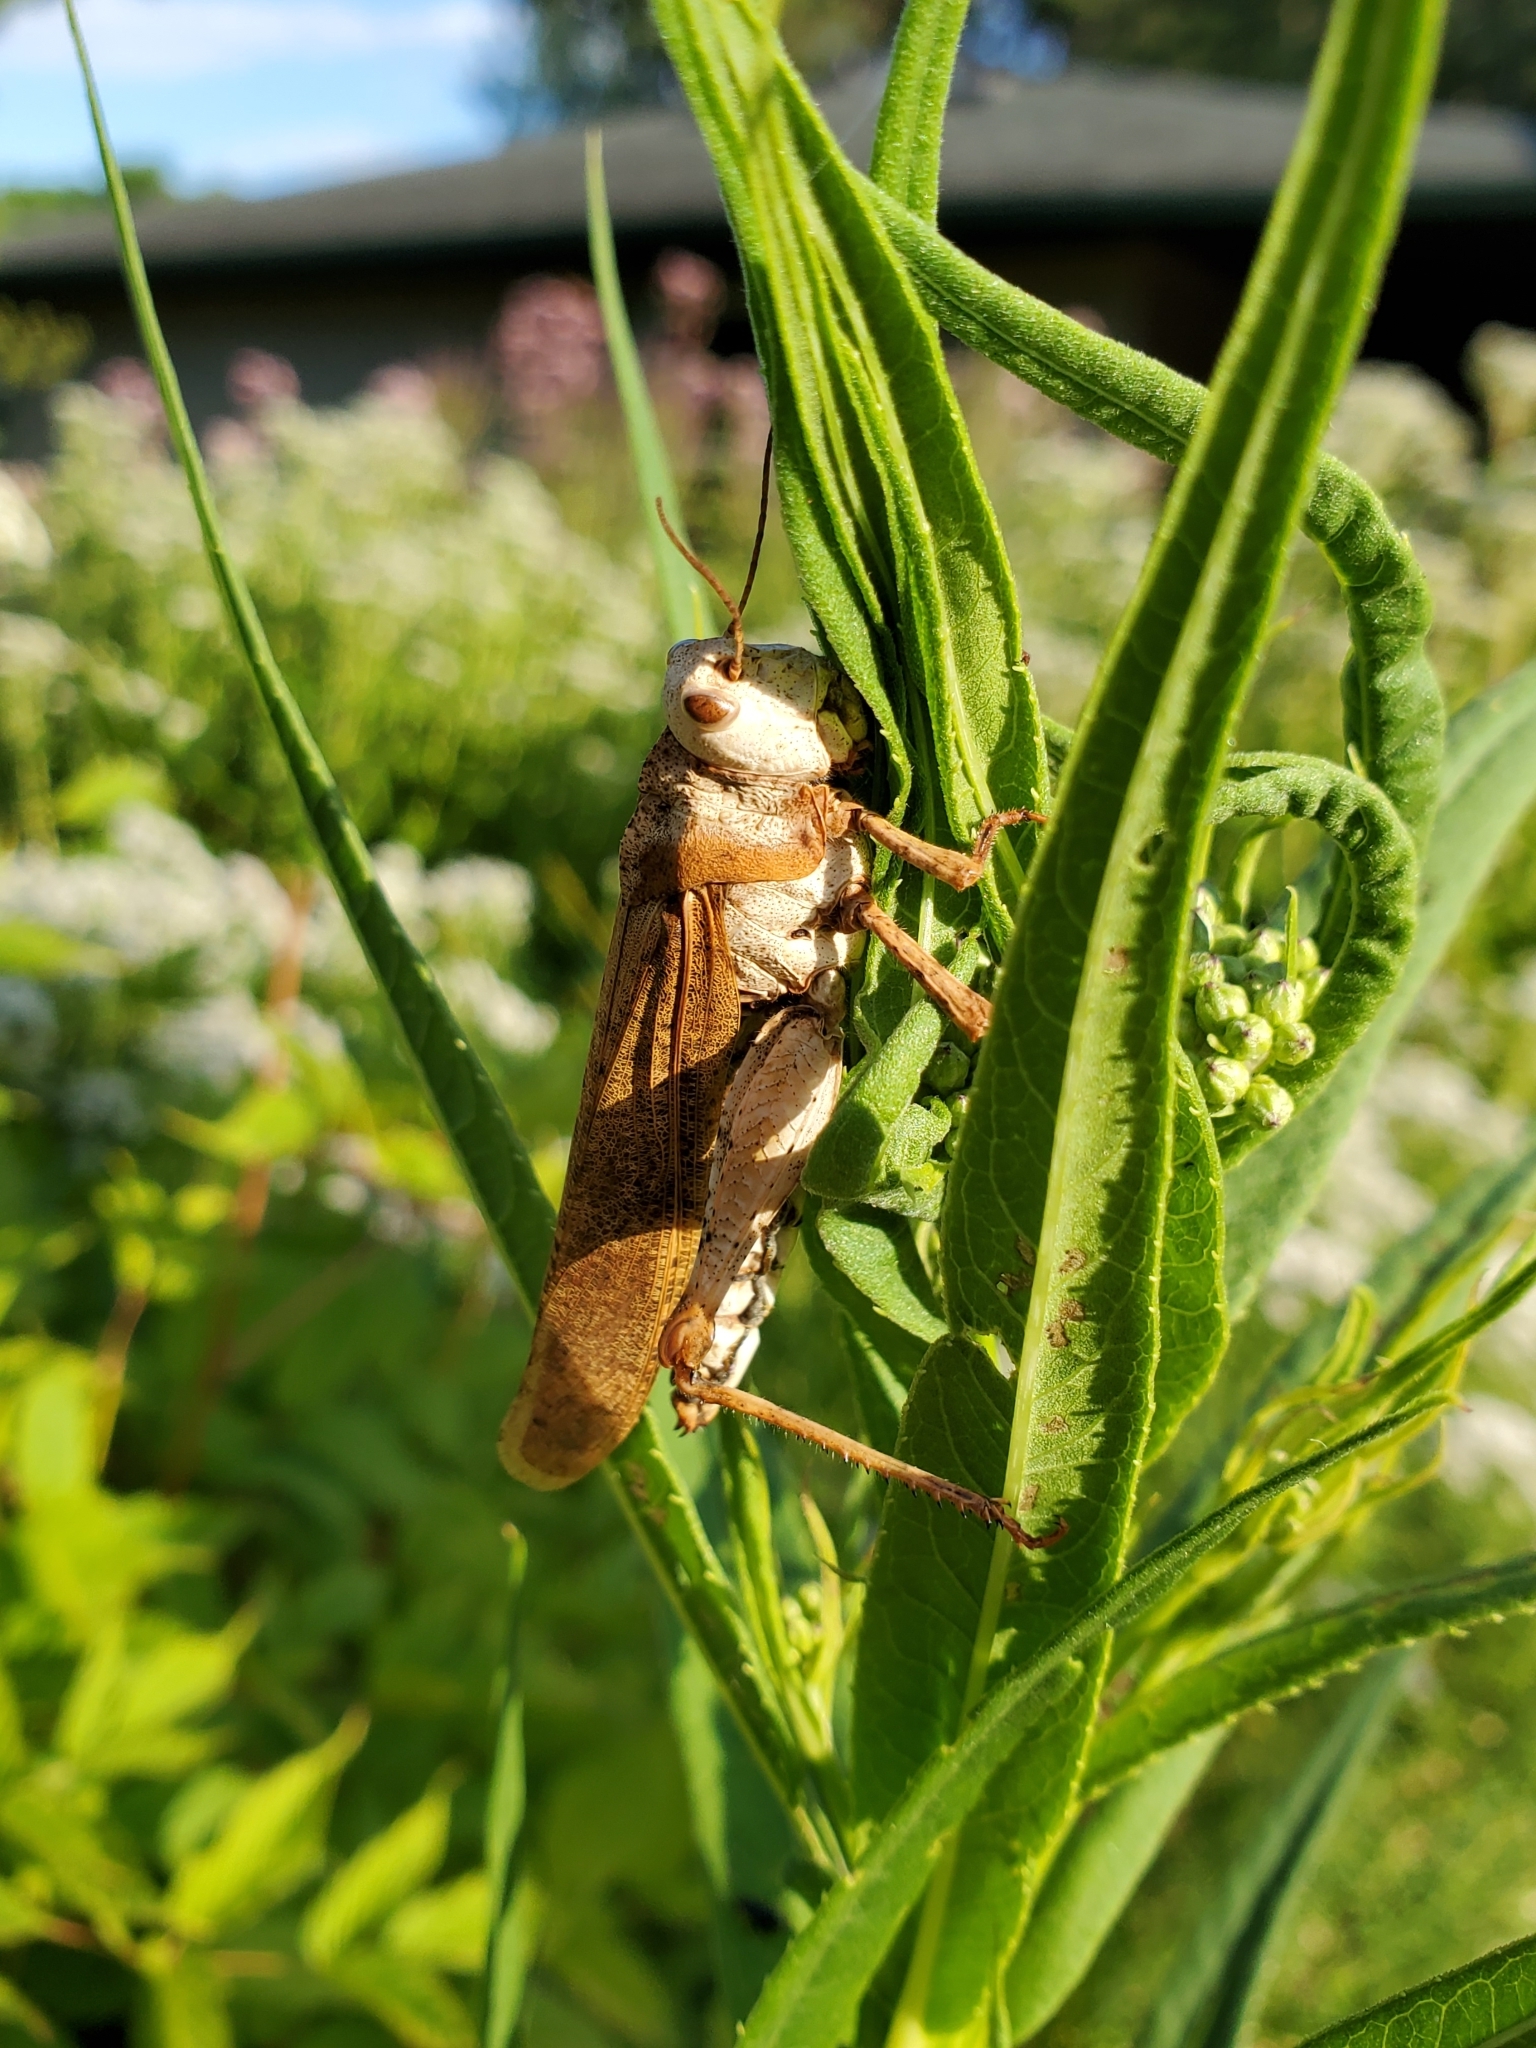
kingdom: Animalia
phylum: Arthropoda
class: Insecta
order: Orthoptera
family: Acrididae
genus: Dissosteira
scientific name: Dissosteira carolina
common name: Carolina grasshopper
